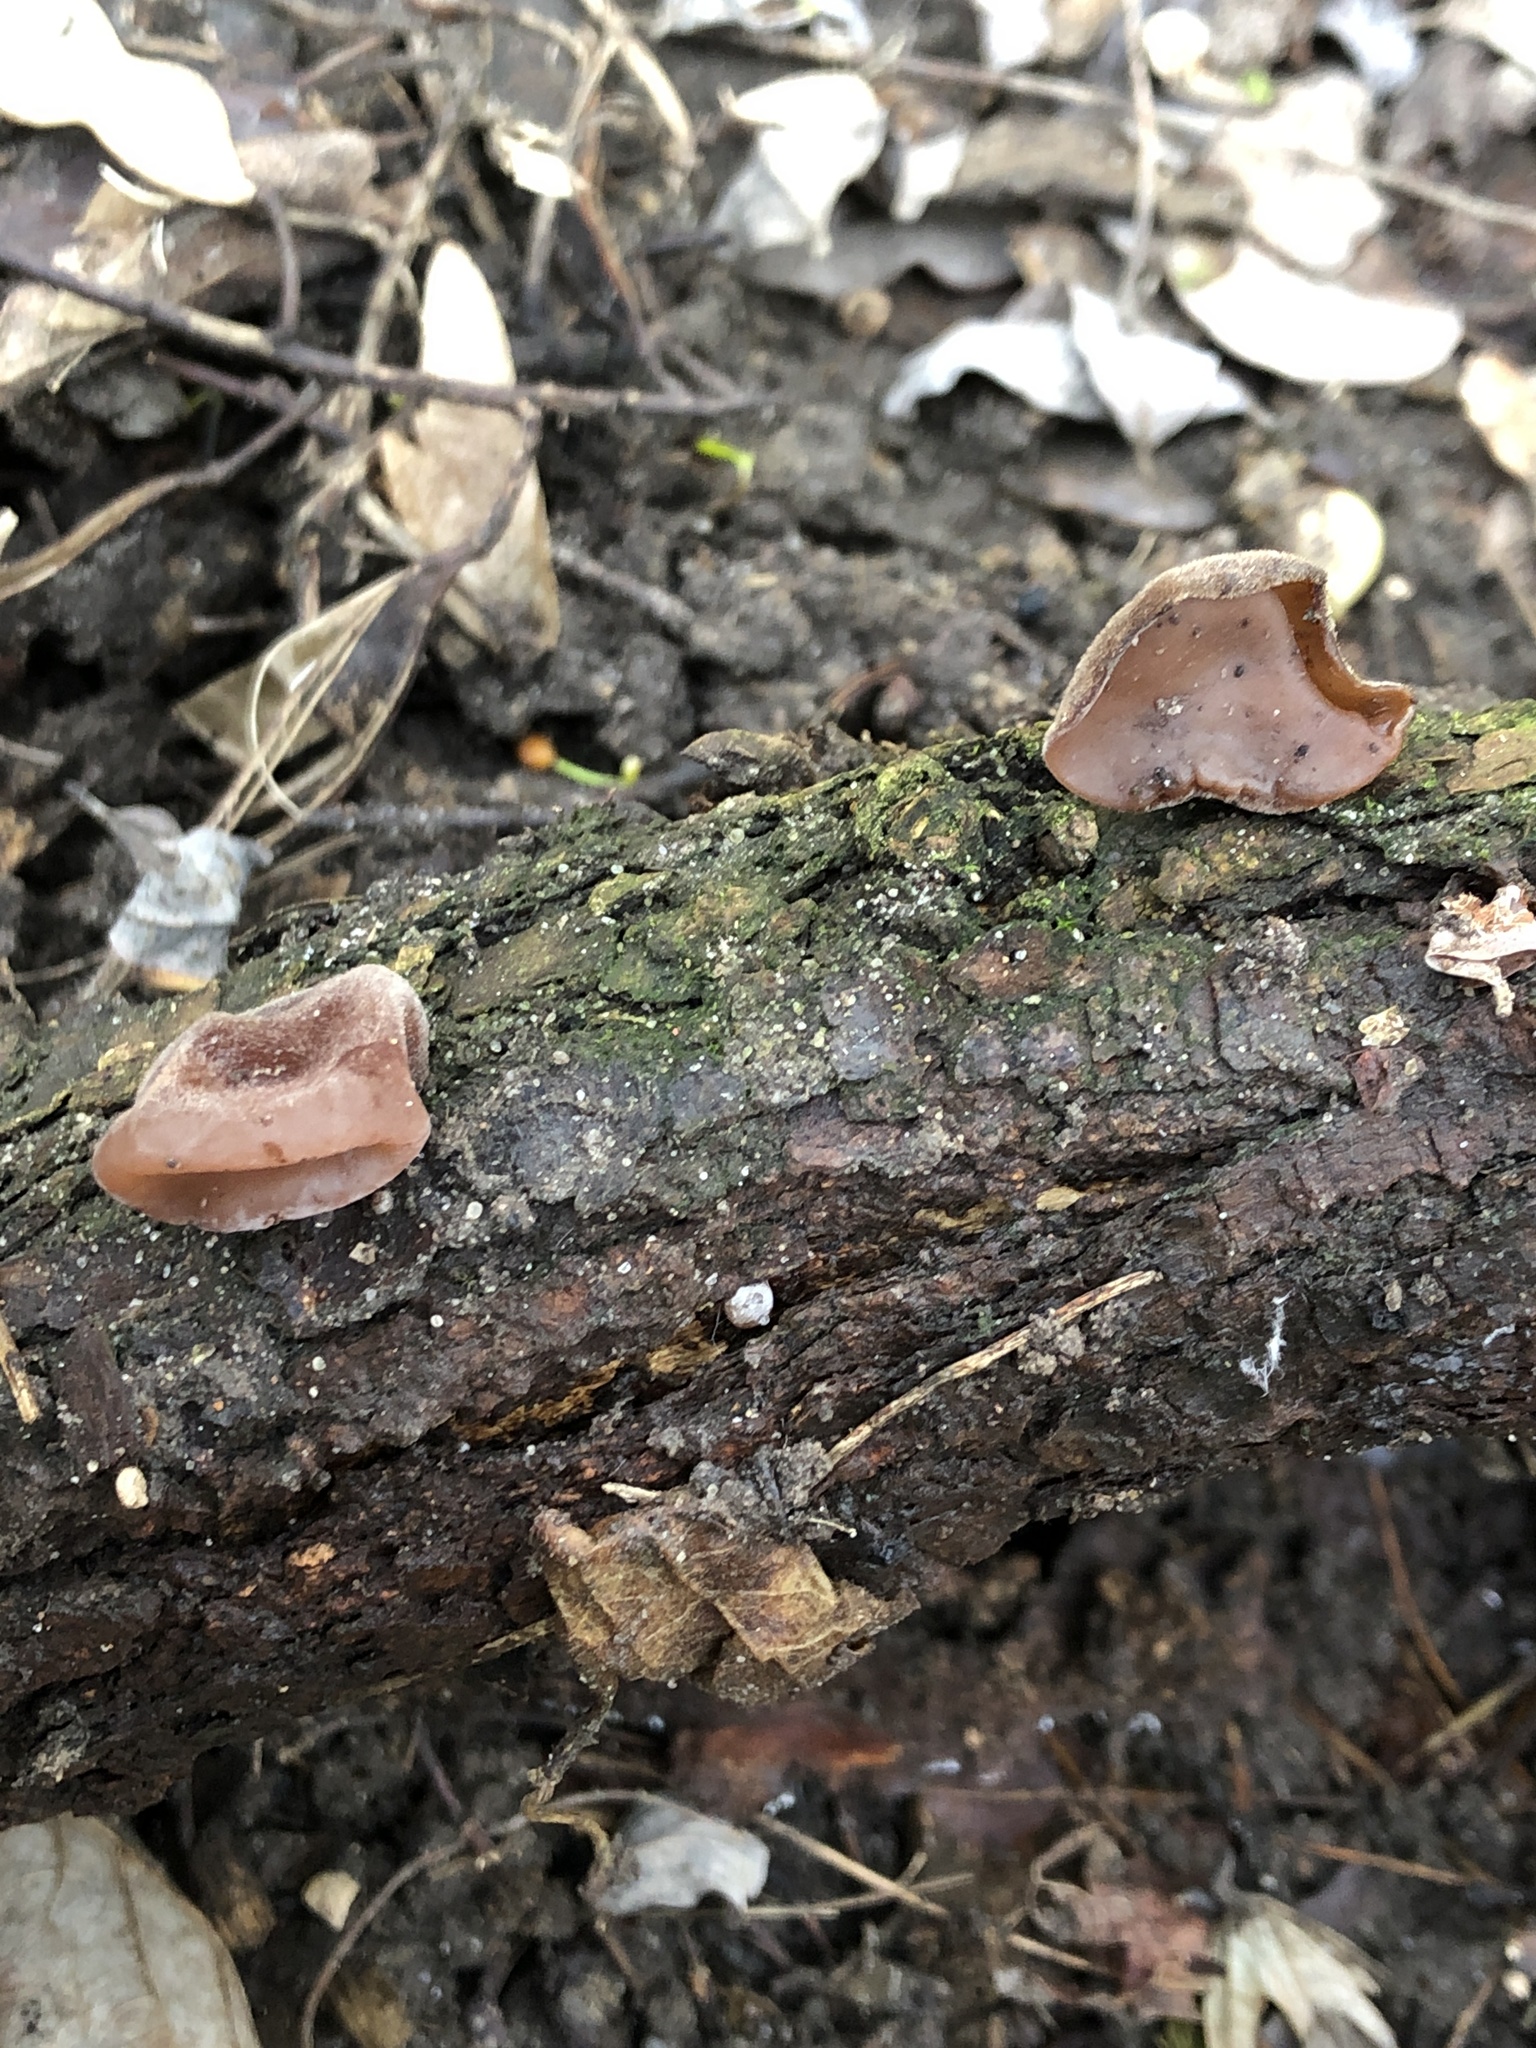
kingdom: Fungi
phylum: Basidiomycota
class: Agaricomycetes
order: Auriculariales
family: Auriculariaceae
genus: Auricularia
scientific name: Auricularia auricula-judae
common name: Jelly ear
